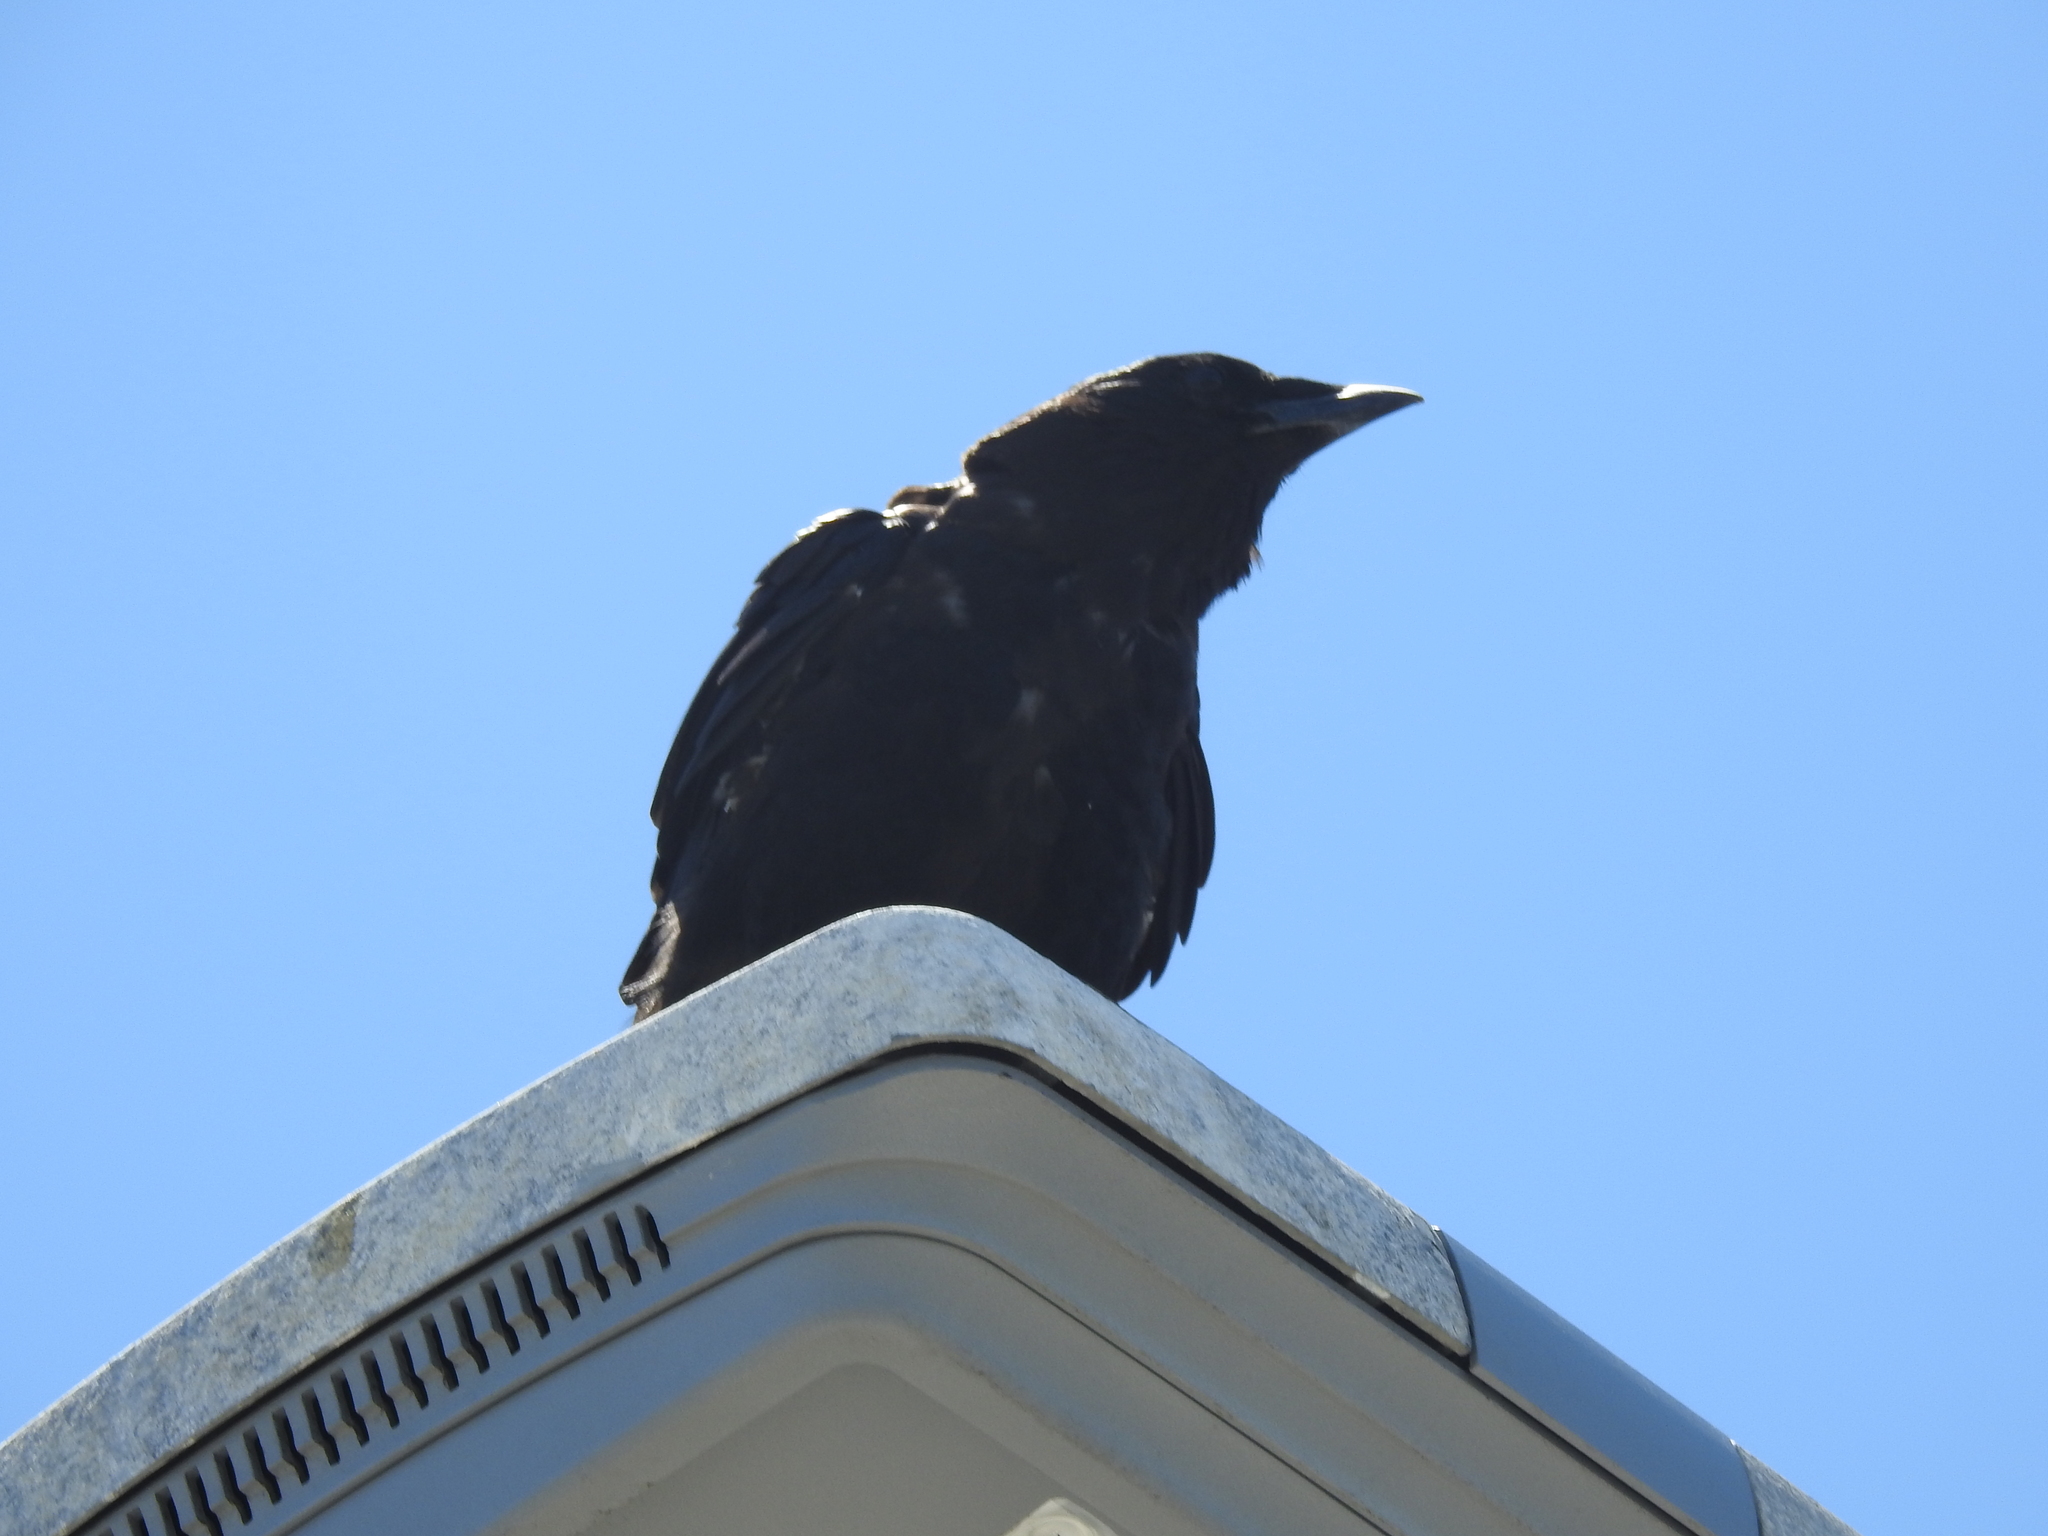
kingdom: Animalia
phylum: Chordata
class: Aves
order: Passeriformes
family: Corvidae
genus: Corvus
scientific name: Corvus corax
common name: Common raven
